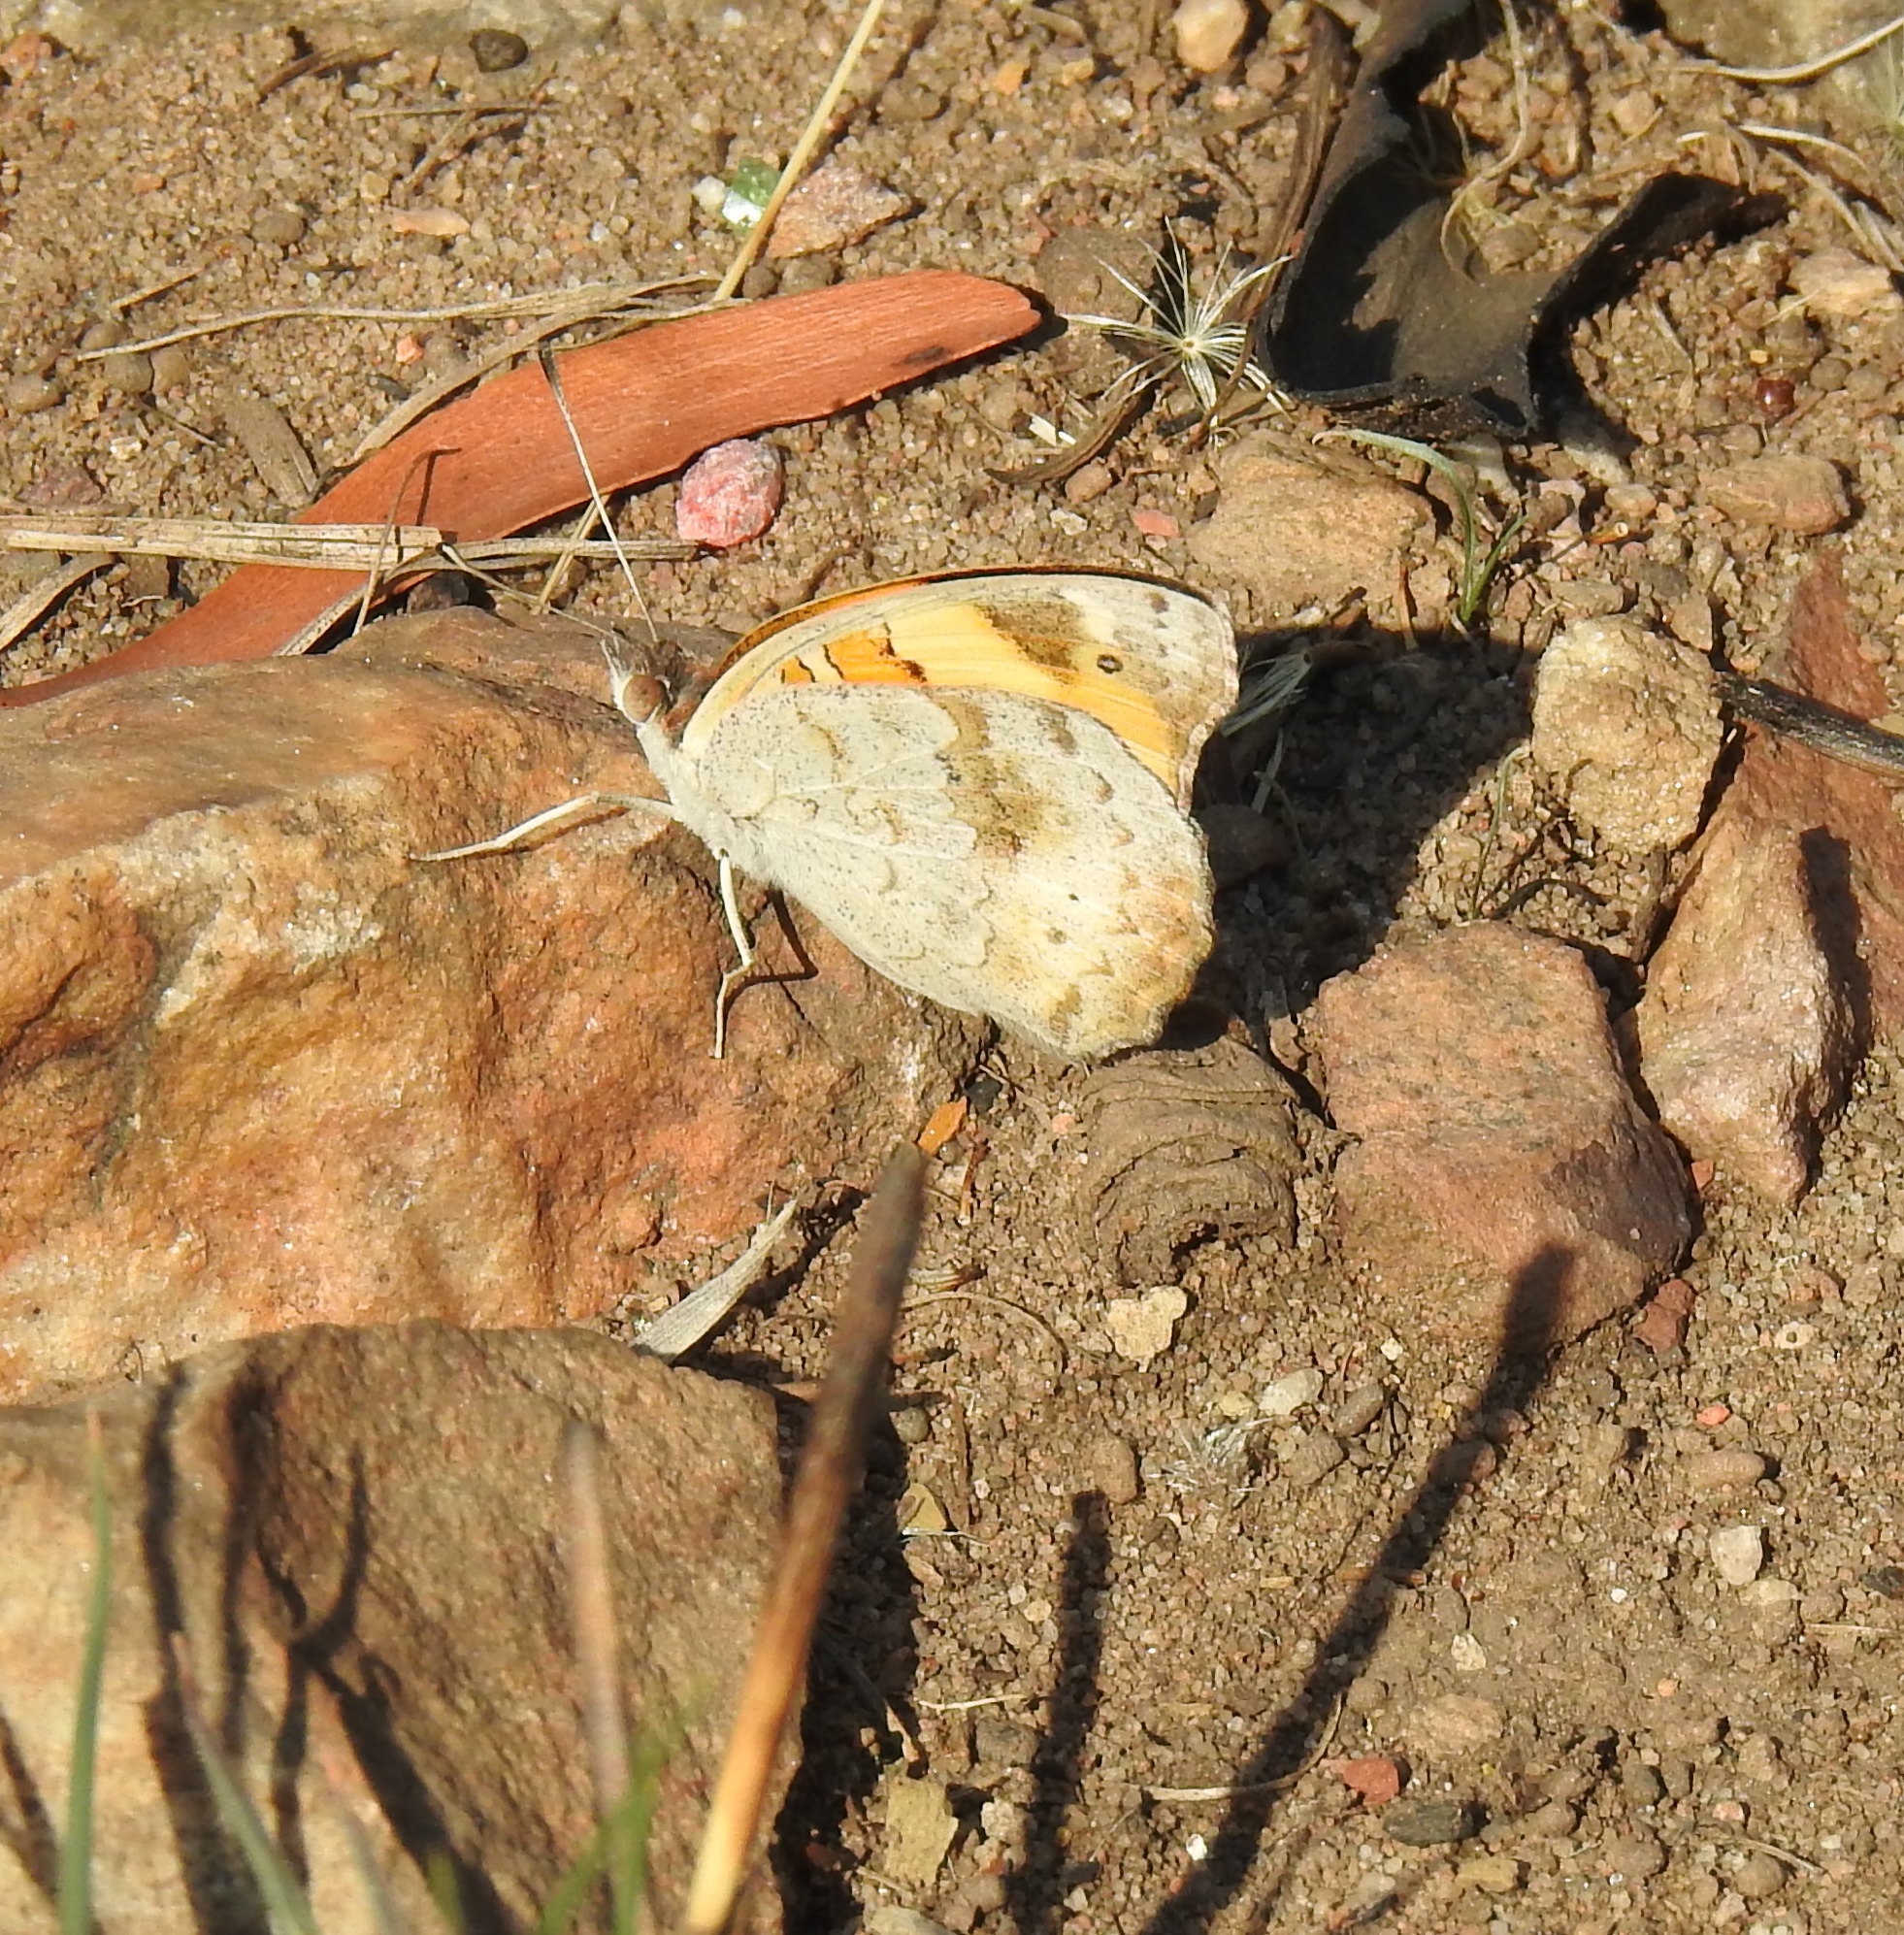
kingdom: Animalia
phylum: Arthropoda
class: Insecta
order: Lepidoptera
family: Nymphalidae
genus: Junonia
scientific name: Junonia hierta
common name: Yellow pansy
